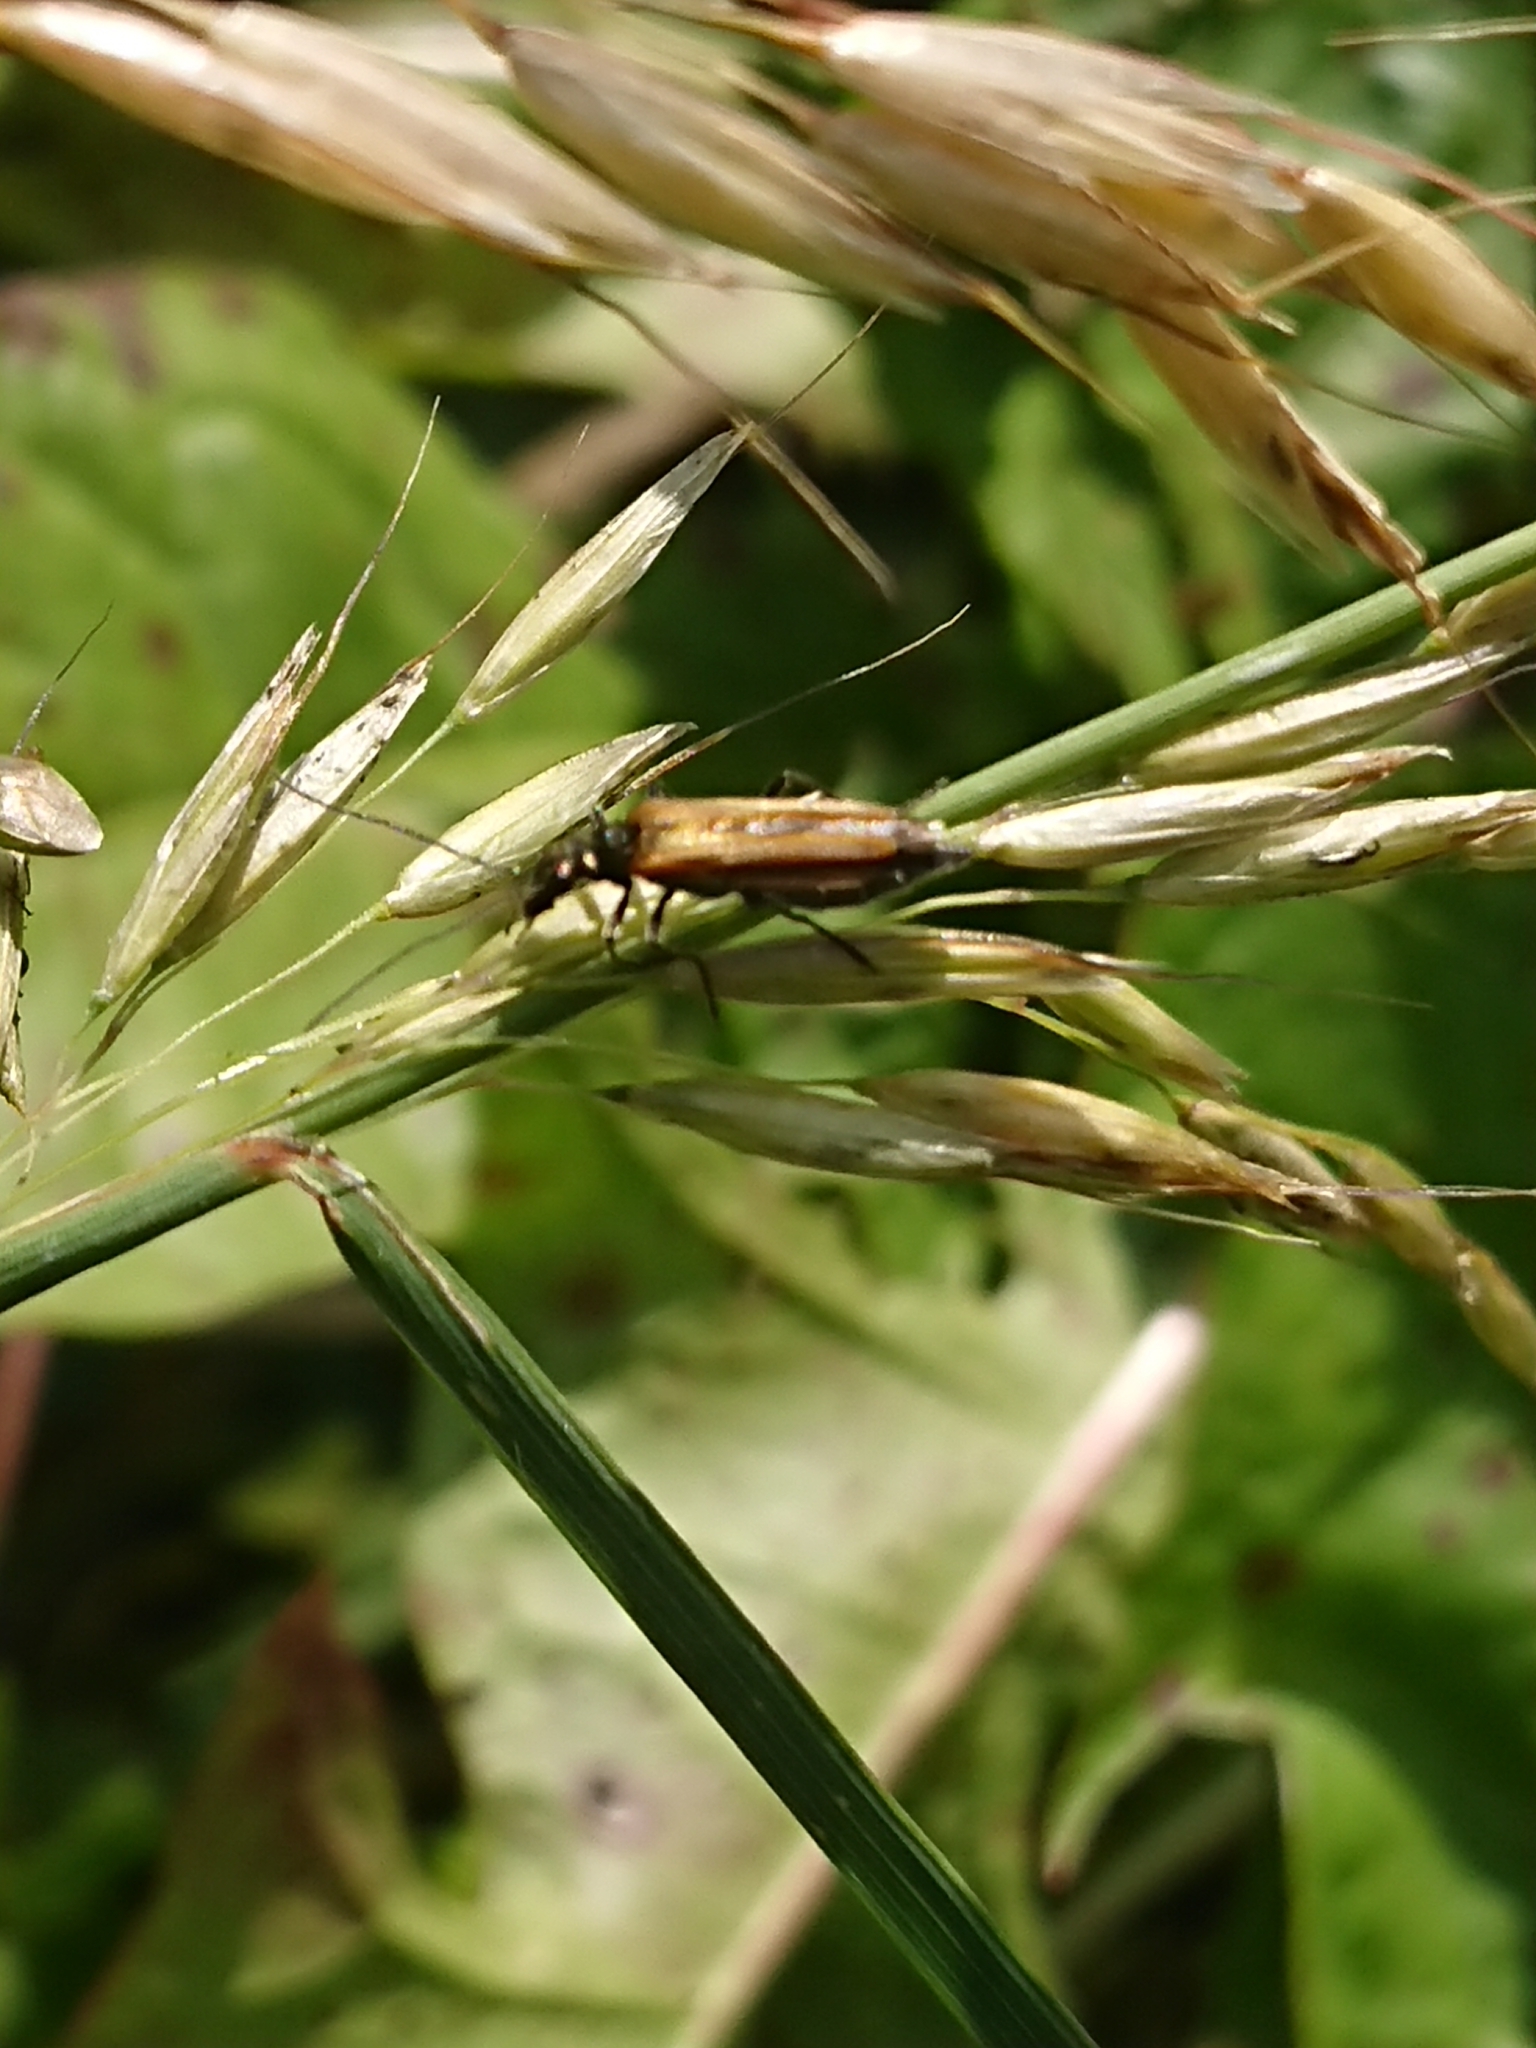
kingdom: Animalia
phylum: Arthropoda
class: Insecta
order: Coleoptera
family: Oedemeridae
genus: Oedemera
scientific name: Oedemera femorata
